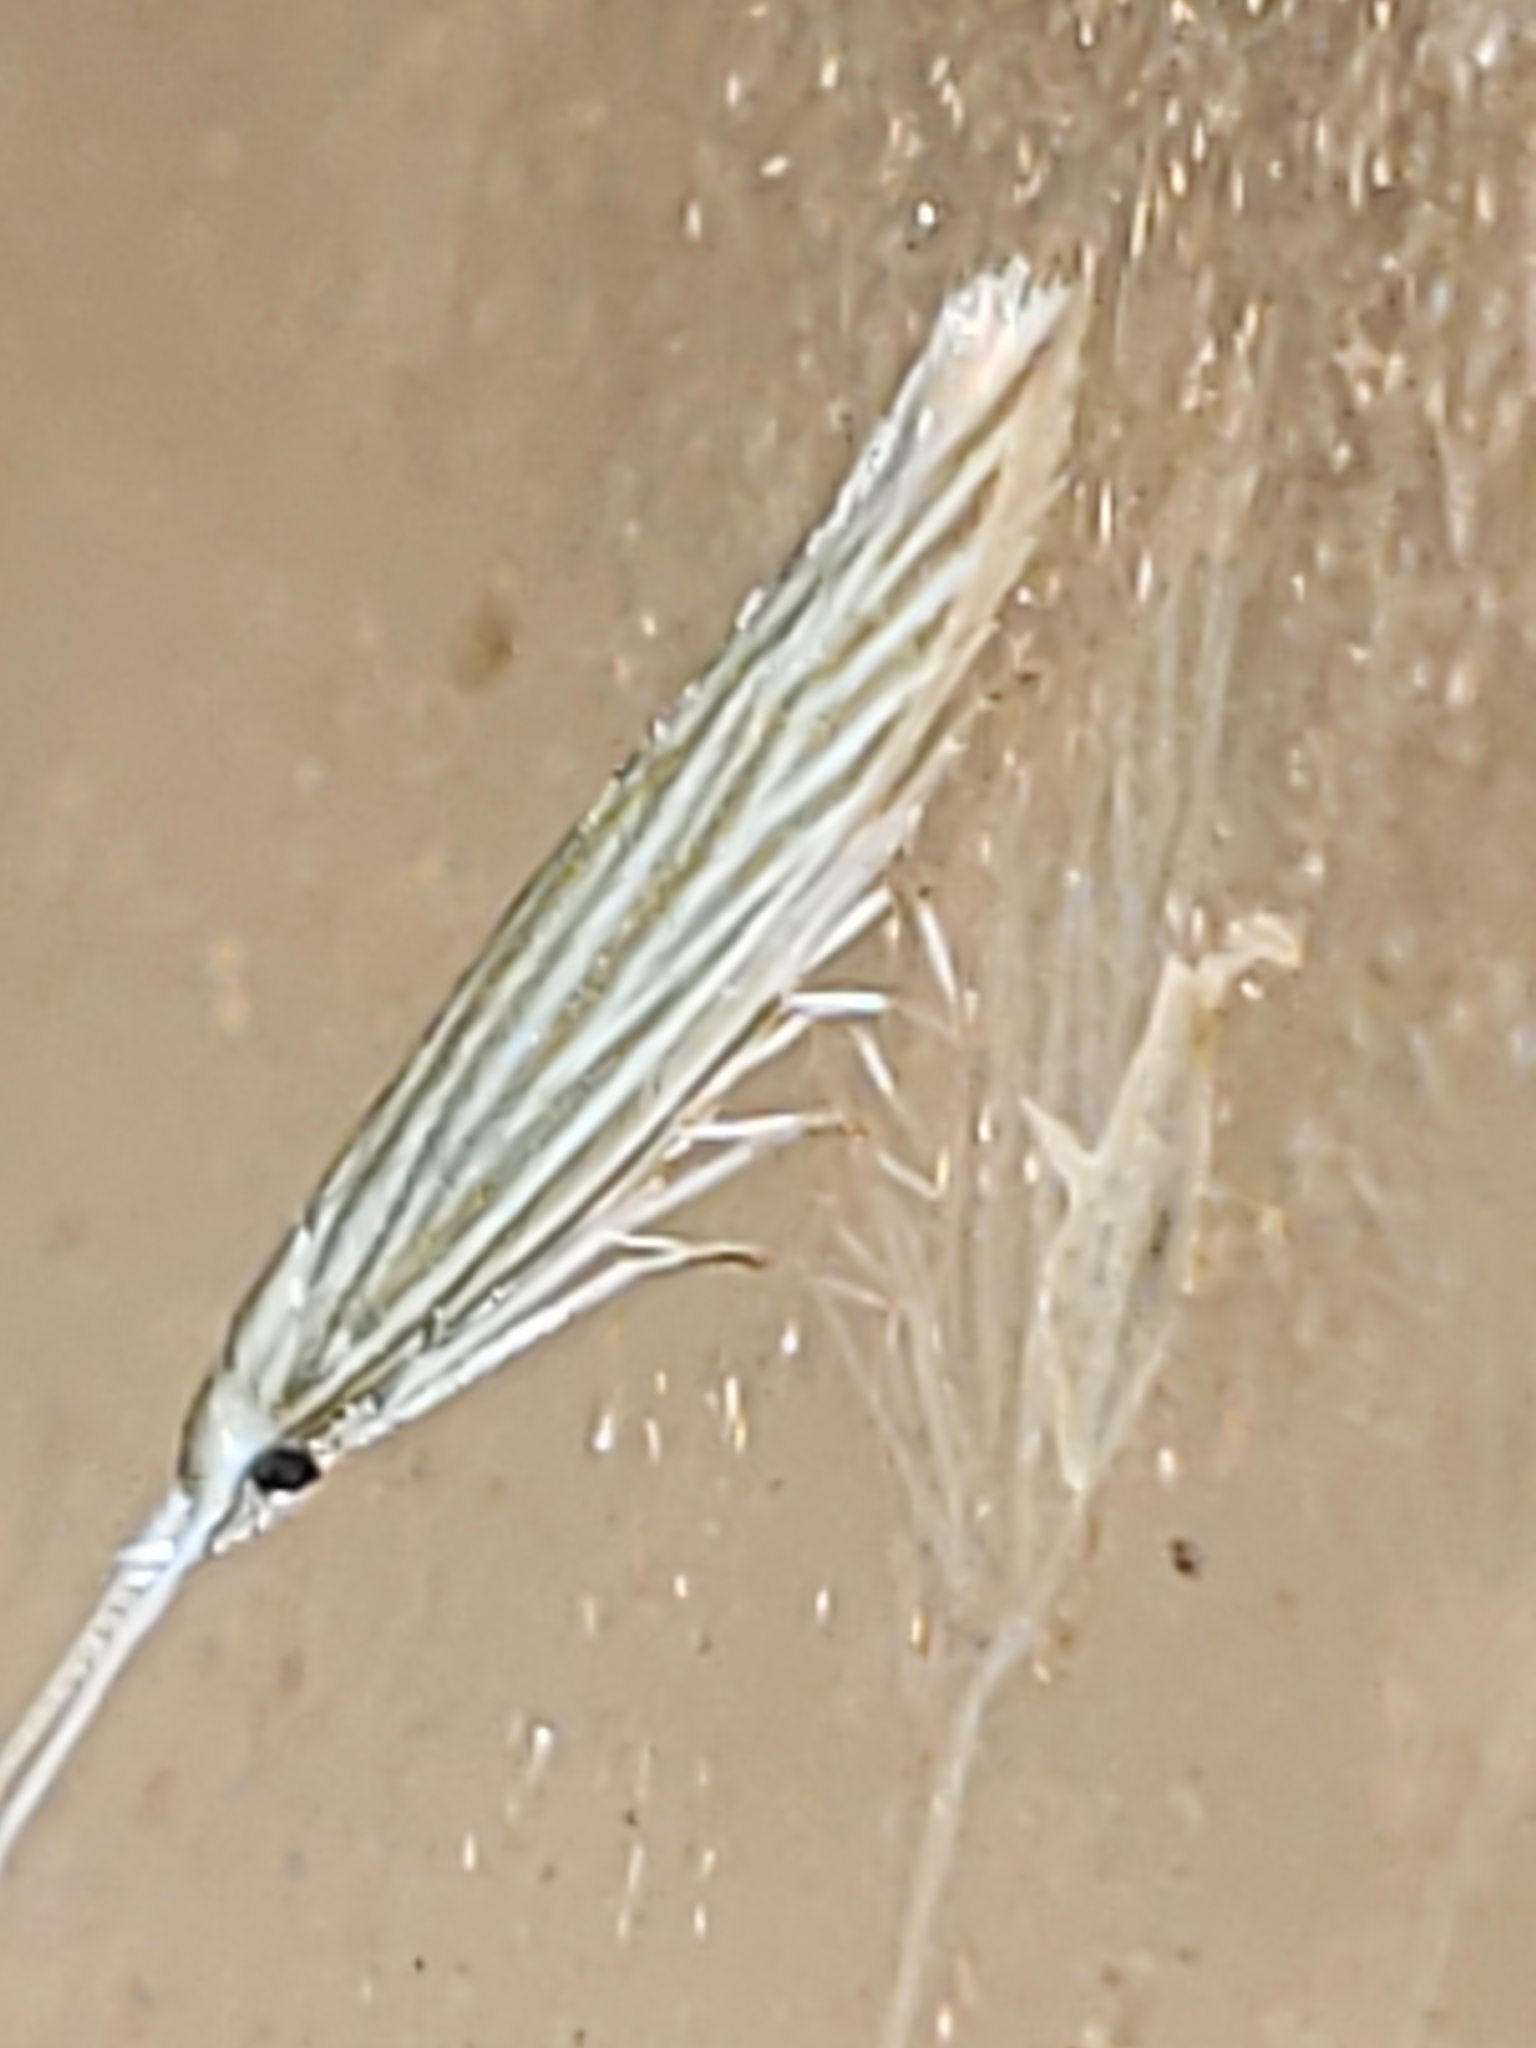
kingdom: Animalia
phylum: Arthropoda
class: Insecta
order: Lepidoptera
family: Coleophoridae
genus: Coleophora
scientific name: Coleophora cratipennella
